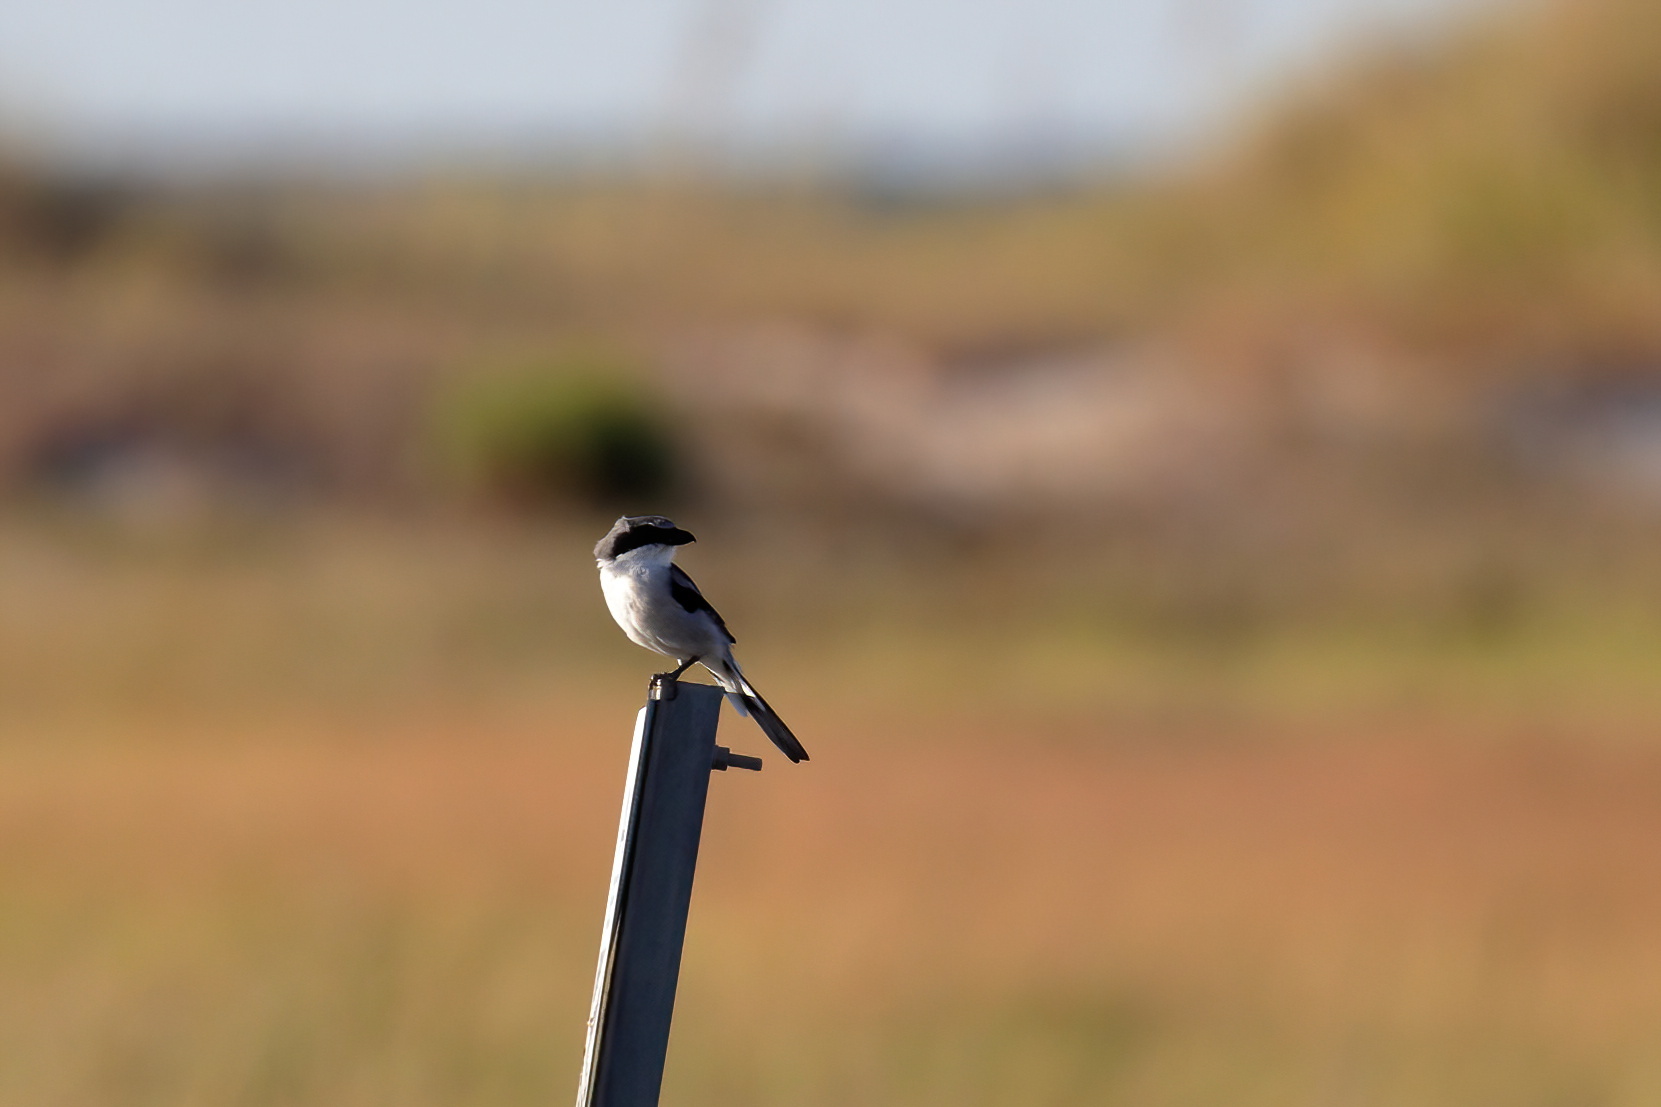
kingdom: Animalia
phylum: Chordata
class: Aves
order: Passeriformes
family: Laniidae
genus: Lanius
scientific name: Lanius ludovicianus
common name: Loggerhead shrike
